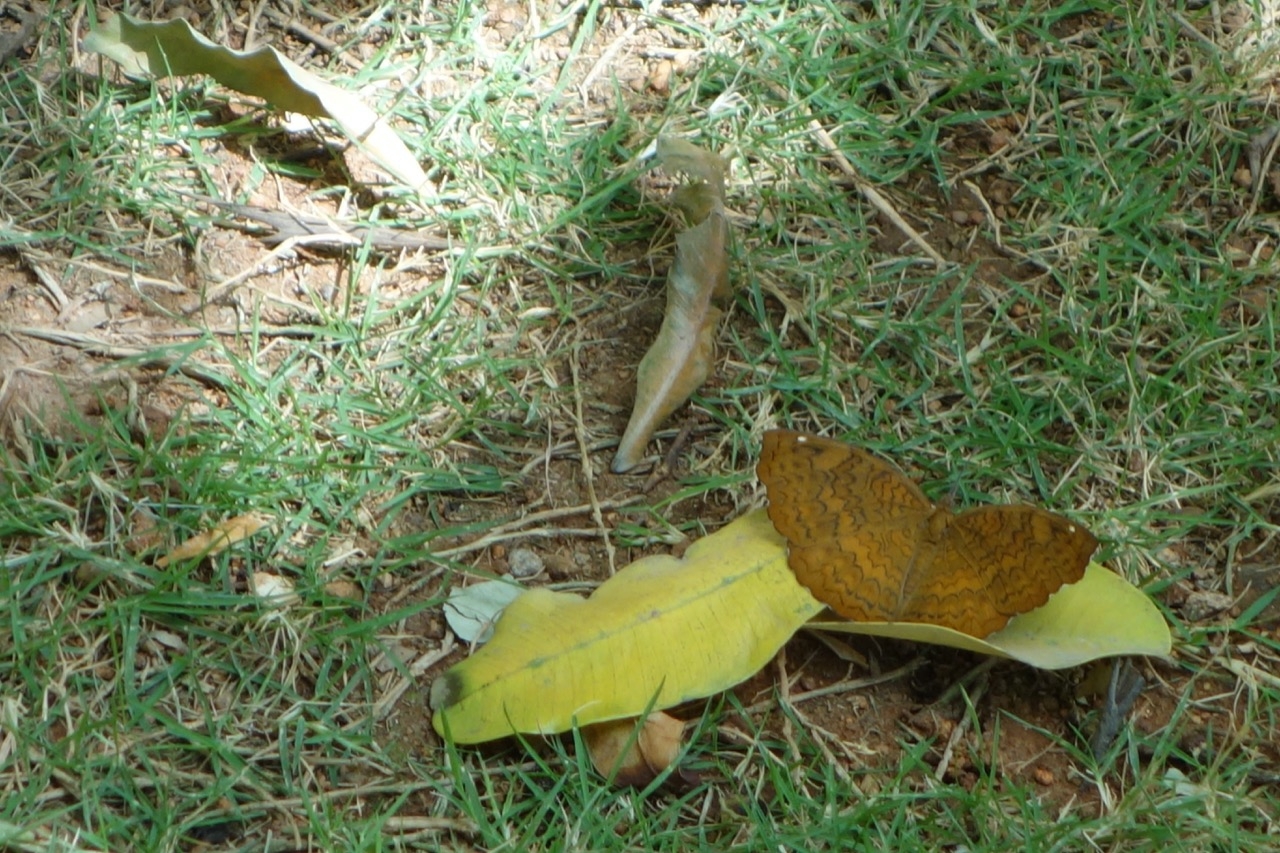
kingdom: Animalia
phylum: Arthropoda
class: Insecta
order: Lepidoptera
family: Nymphalidae
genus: Ariadne
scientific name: Ariadne merione
